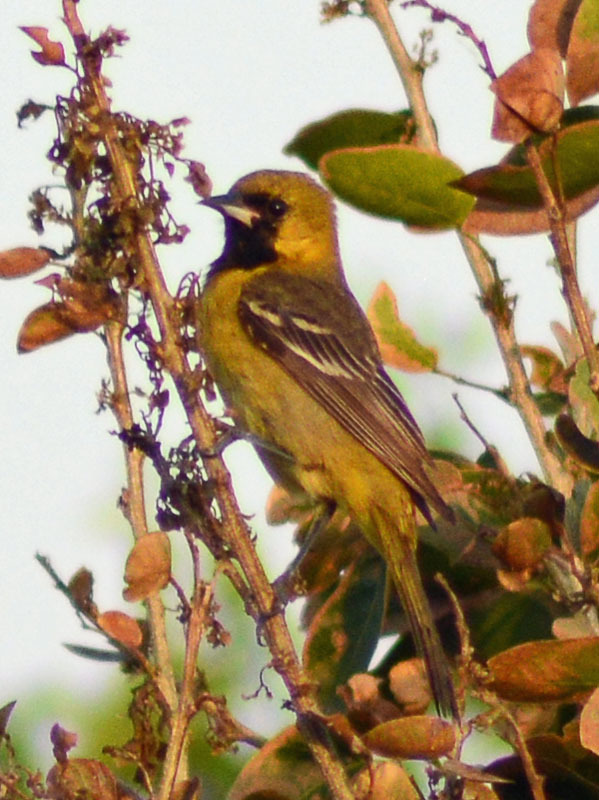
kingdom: Animalia
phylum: Chordata
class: Aves
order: Passeriformes
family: Icteridae
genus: Icterus
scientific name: Icterus spurius
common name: Orchard oriole
